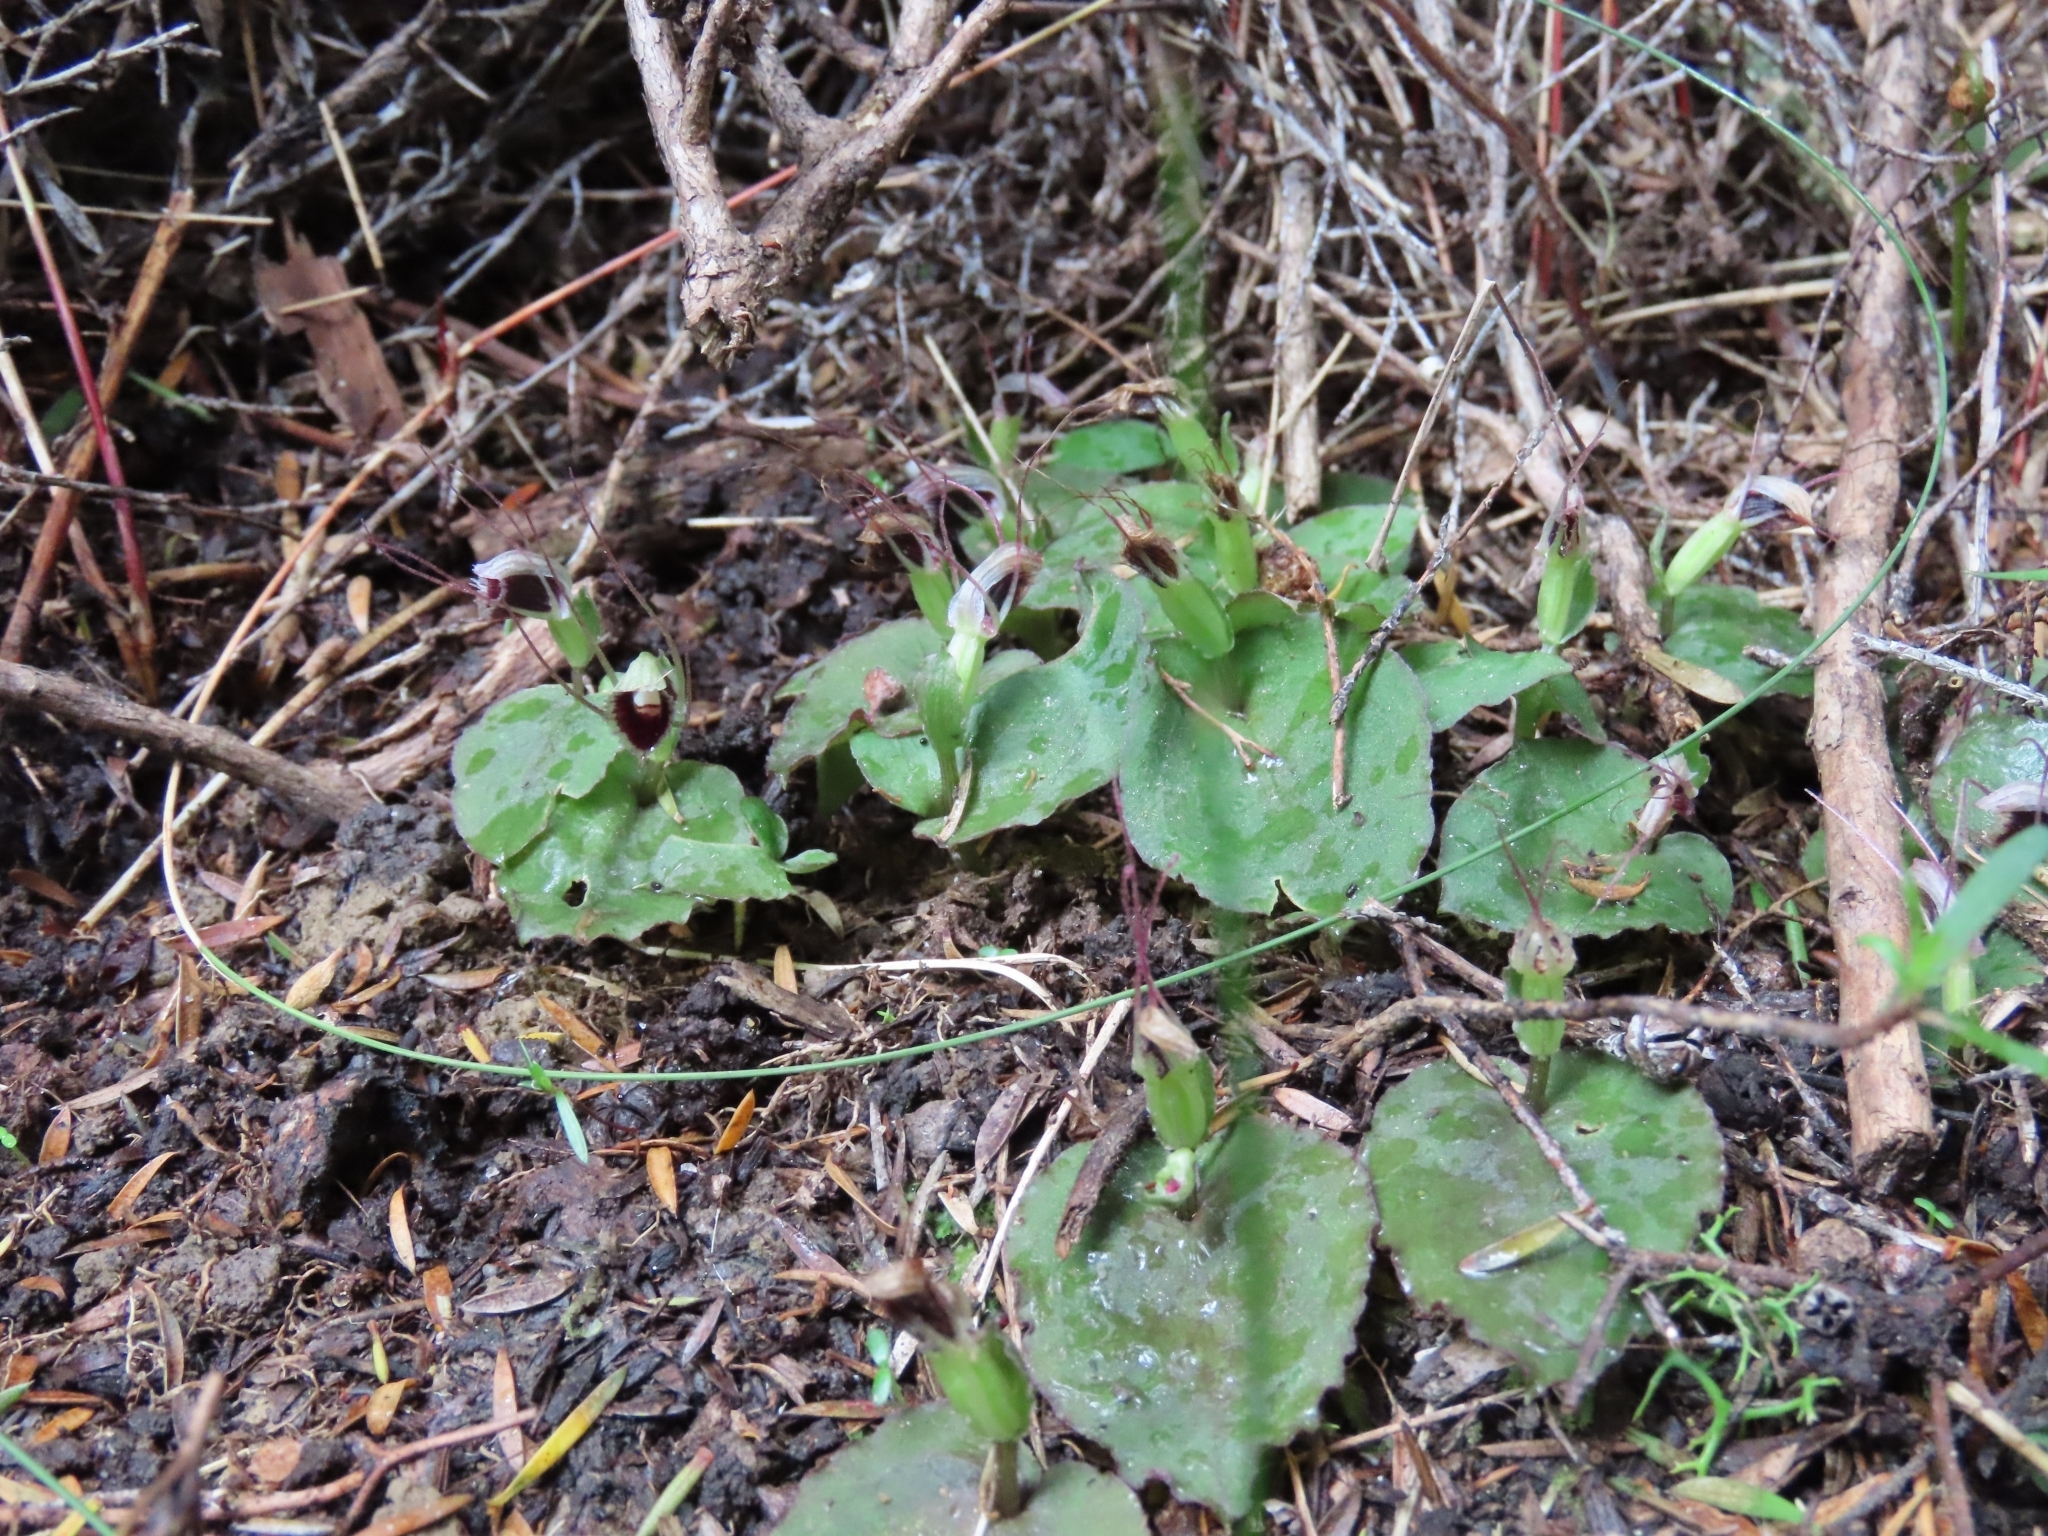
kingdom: Plantae
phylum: Tracheophyta
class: Liliopsida
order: Asparagales
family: Orchidaceae
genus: Corybas
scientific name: Corybas oblongus
